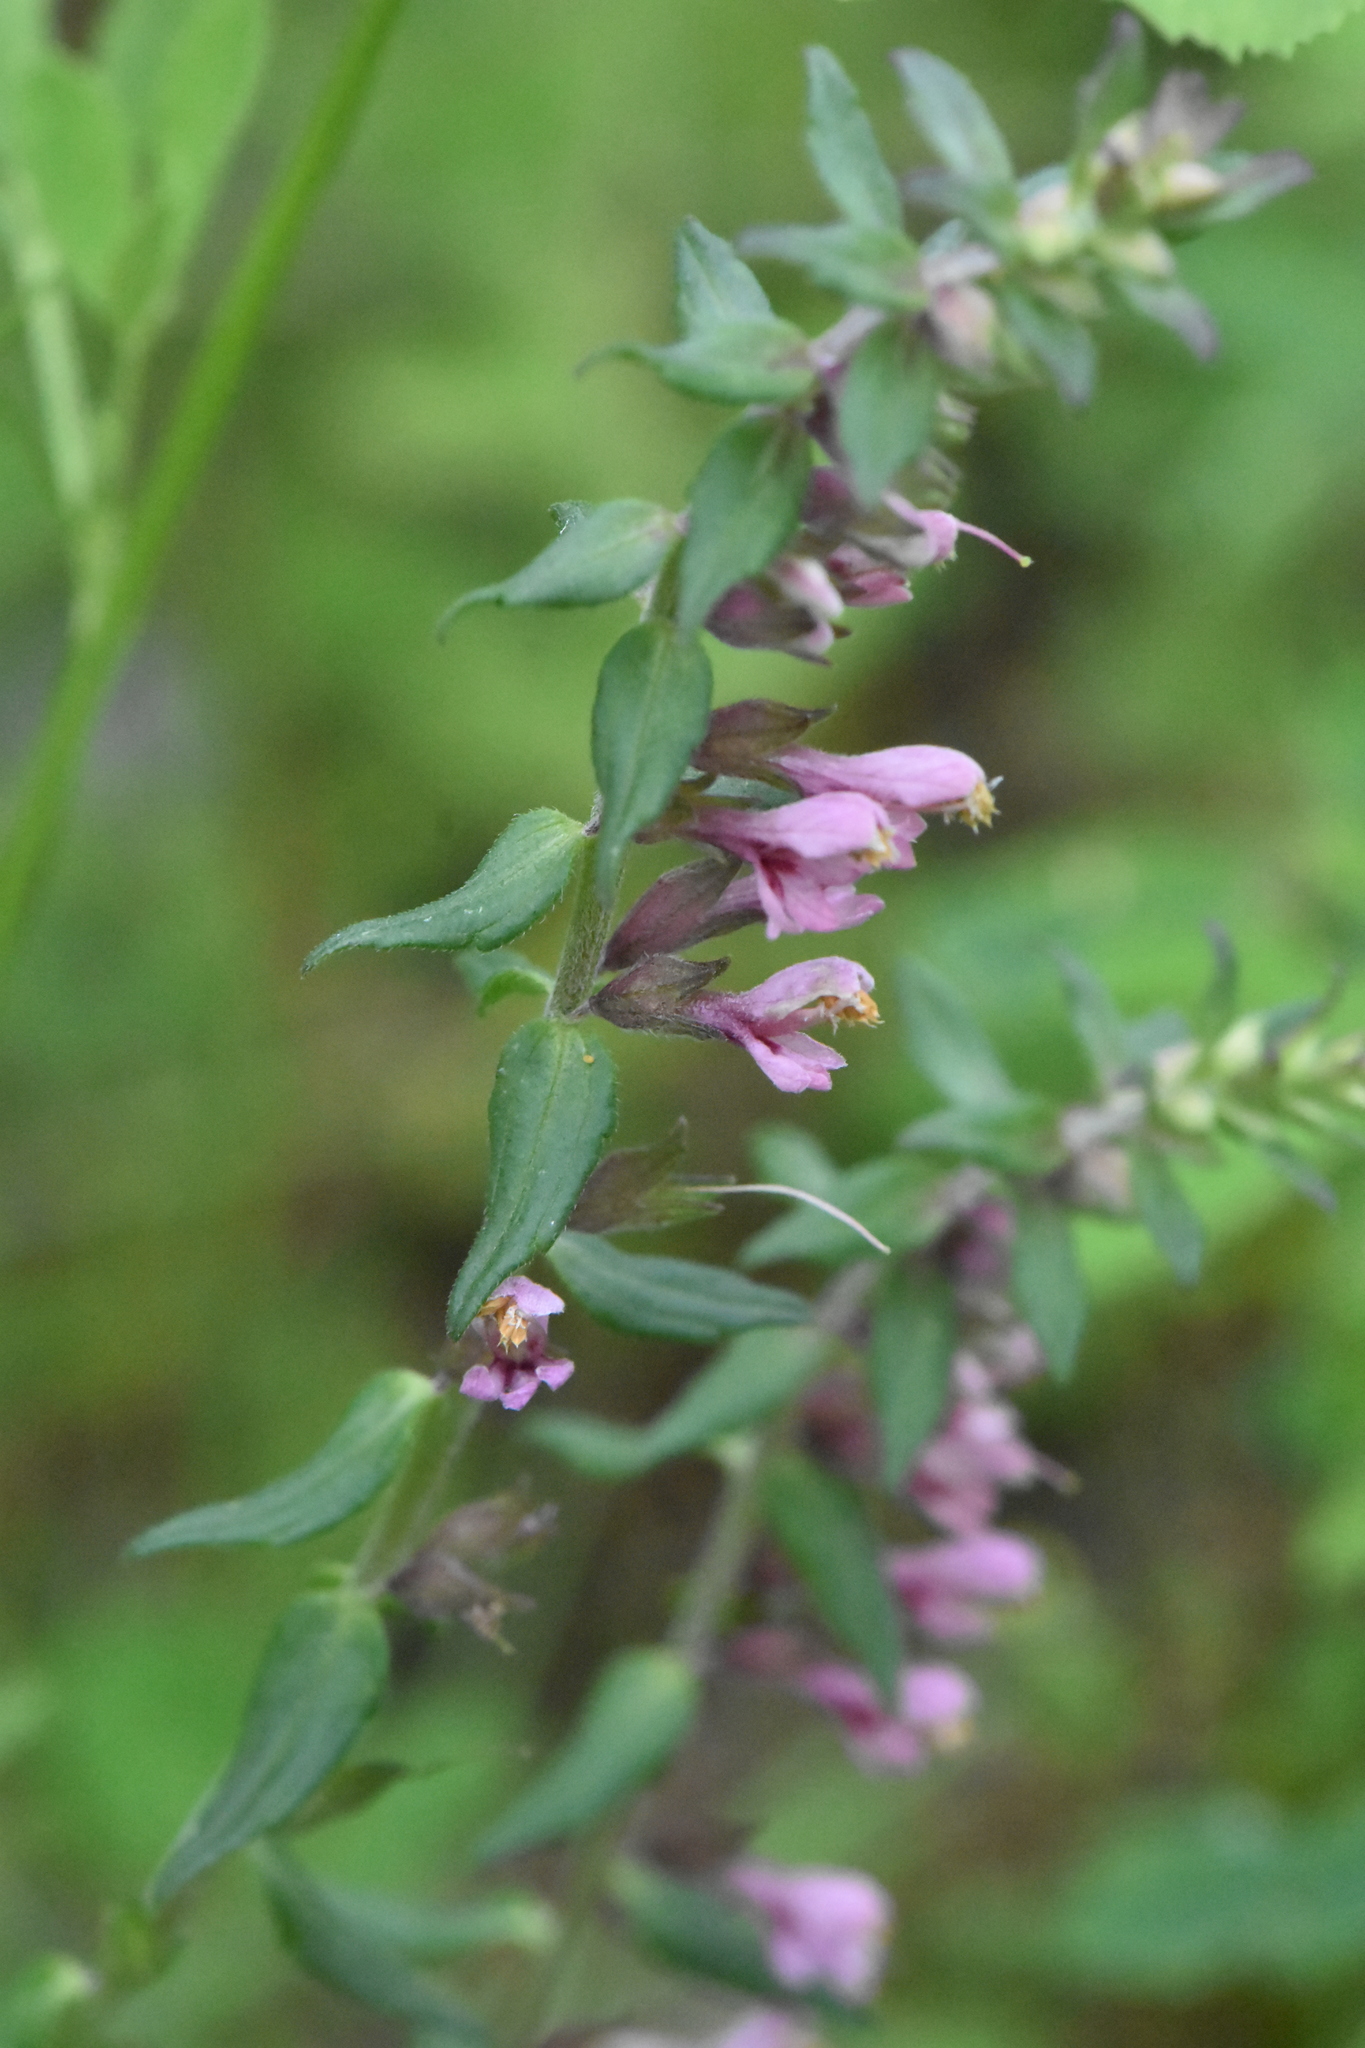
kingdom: Plantae
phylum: Tracheophyta
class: Magnoliopsida
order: Lamiales
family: Orobanchaceae
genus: Odontites
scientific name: Odontites vulgaris
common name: Broomrape
